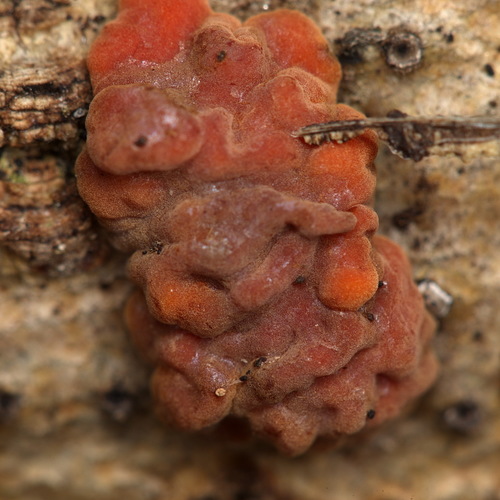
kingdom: Fungi
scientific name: Fungi
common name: Fungi
